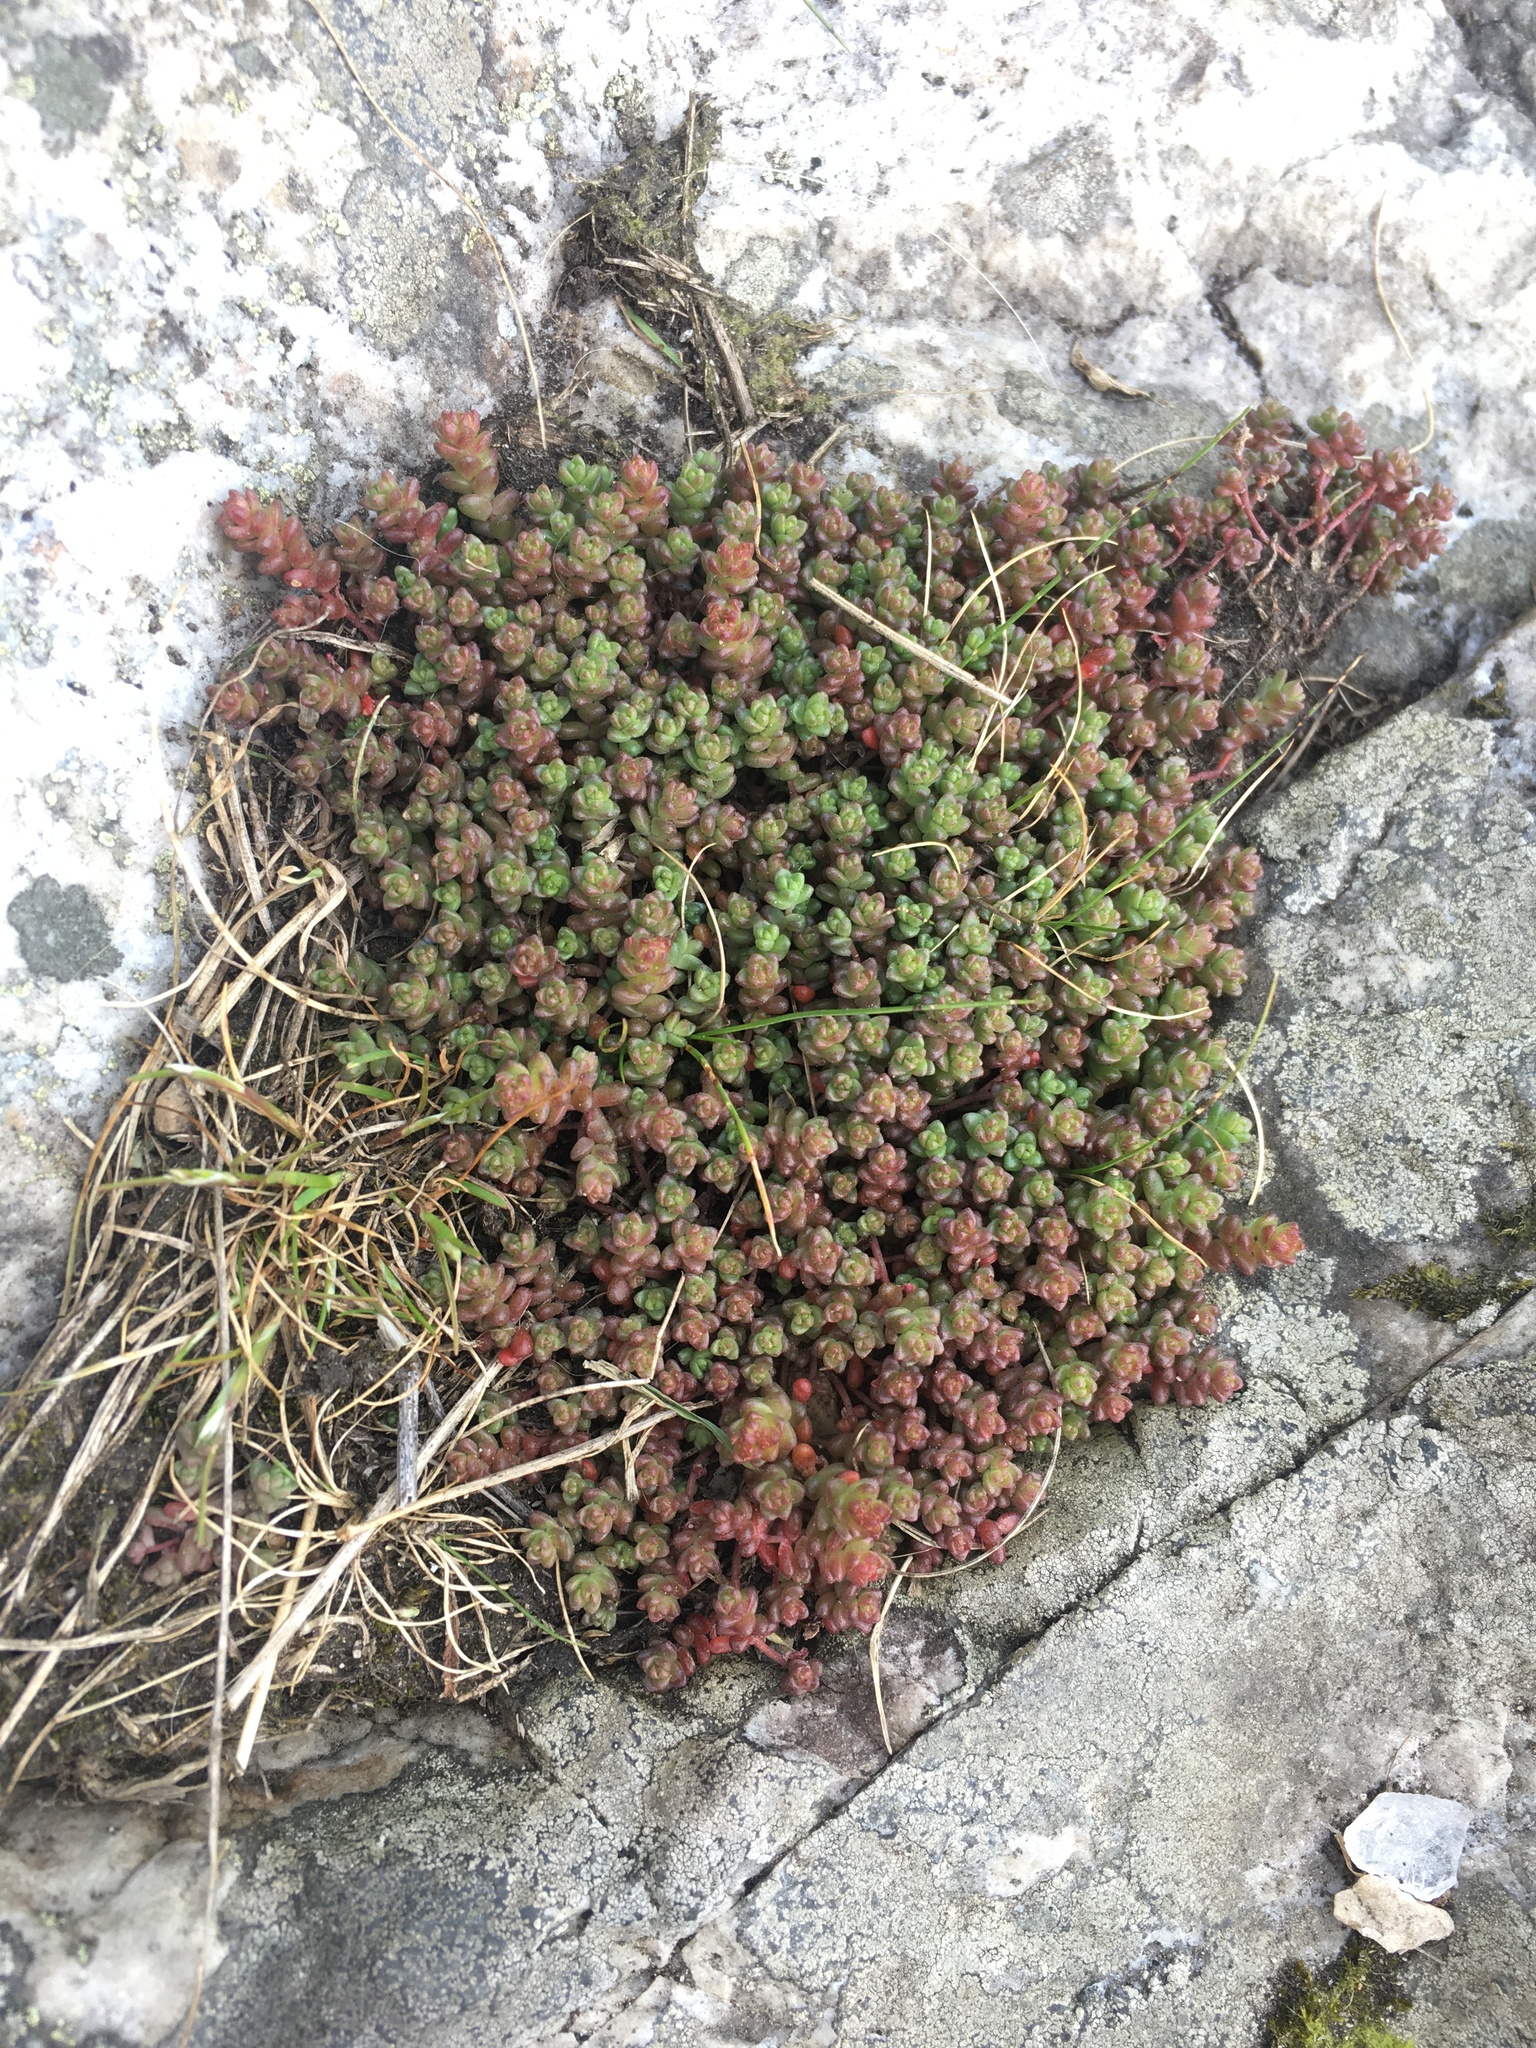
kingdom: Plantae
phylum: Tracheophyta
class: Magnoliopsida
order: Saxifragales
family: Crassulaceae
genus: Sedum
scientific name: Sedum anglicum
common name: English stonecrop
